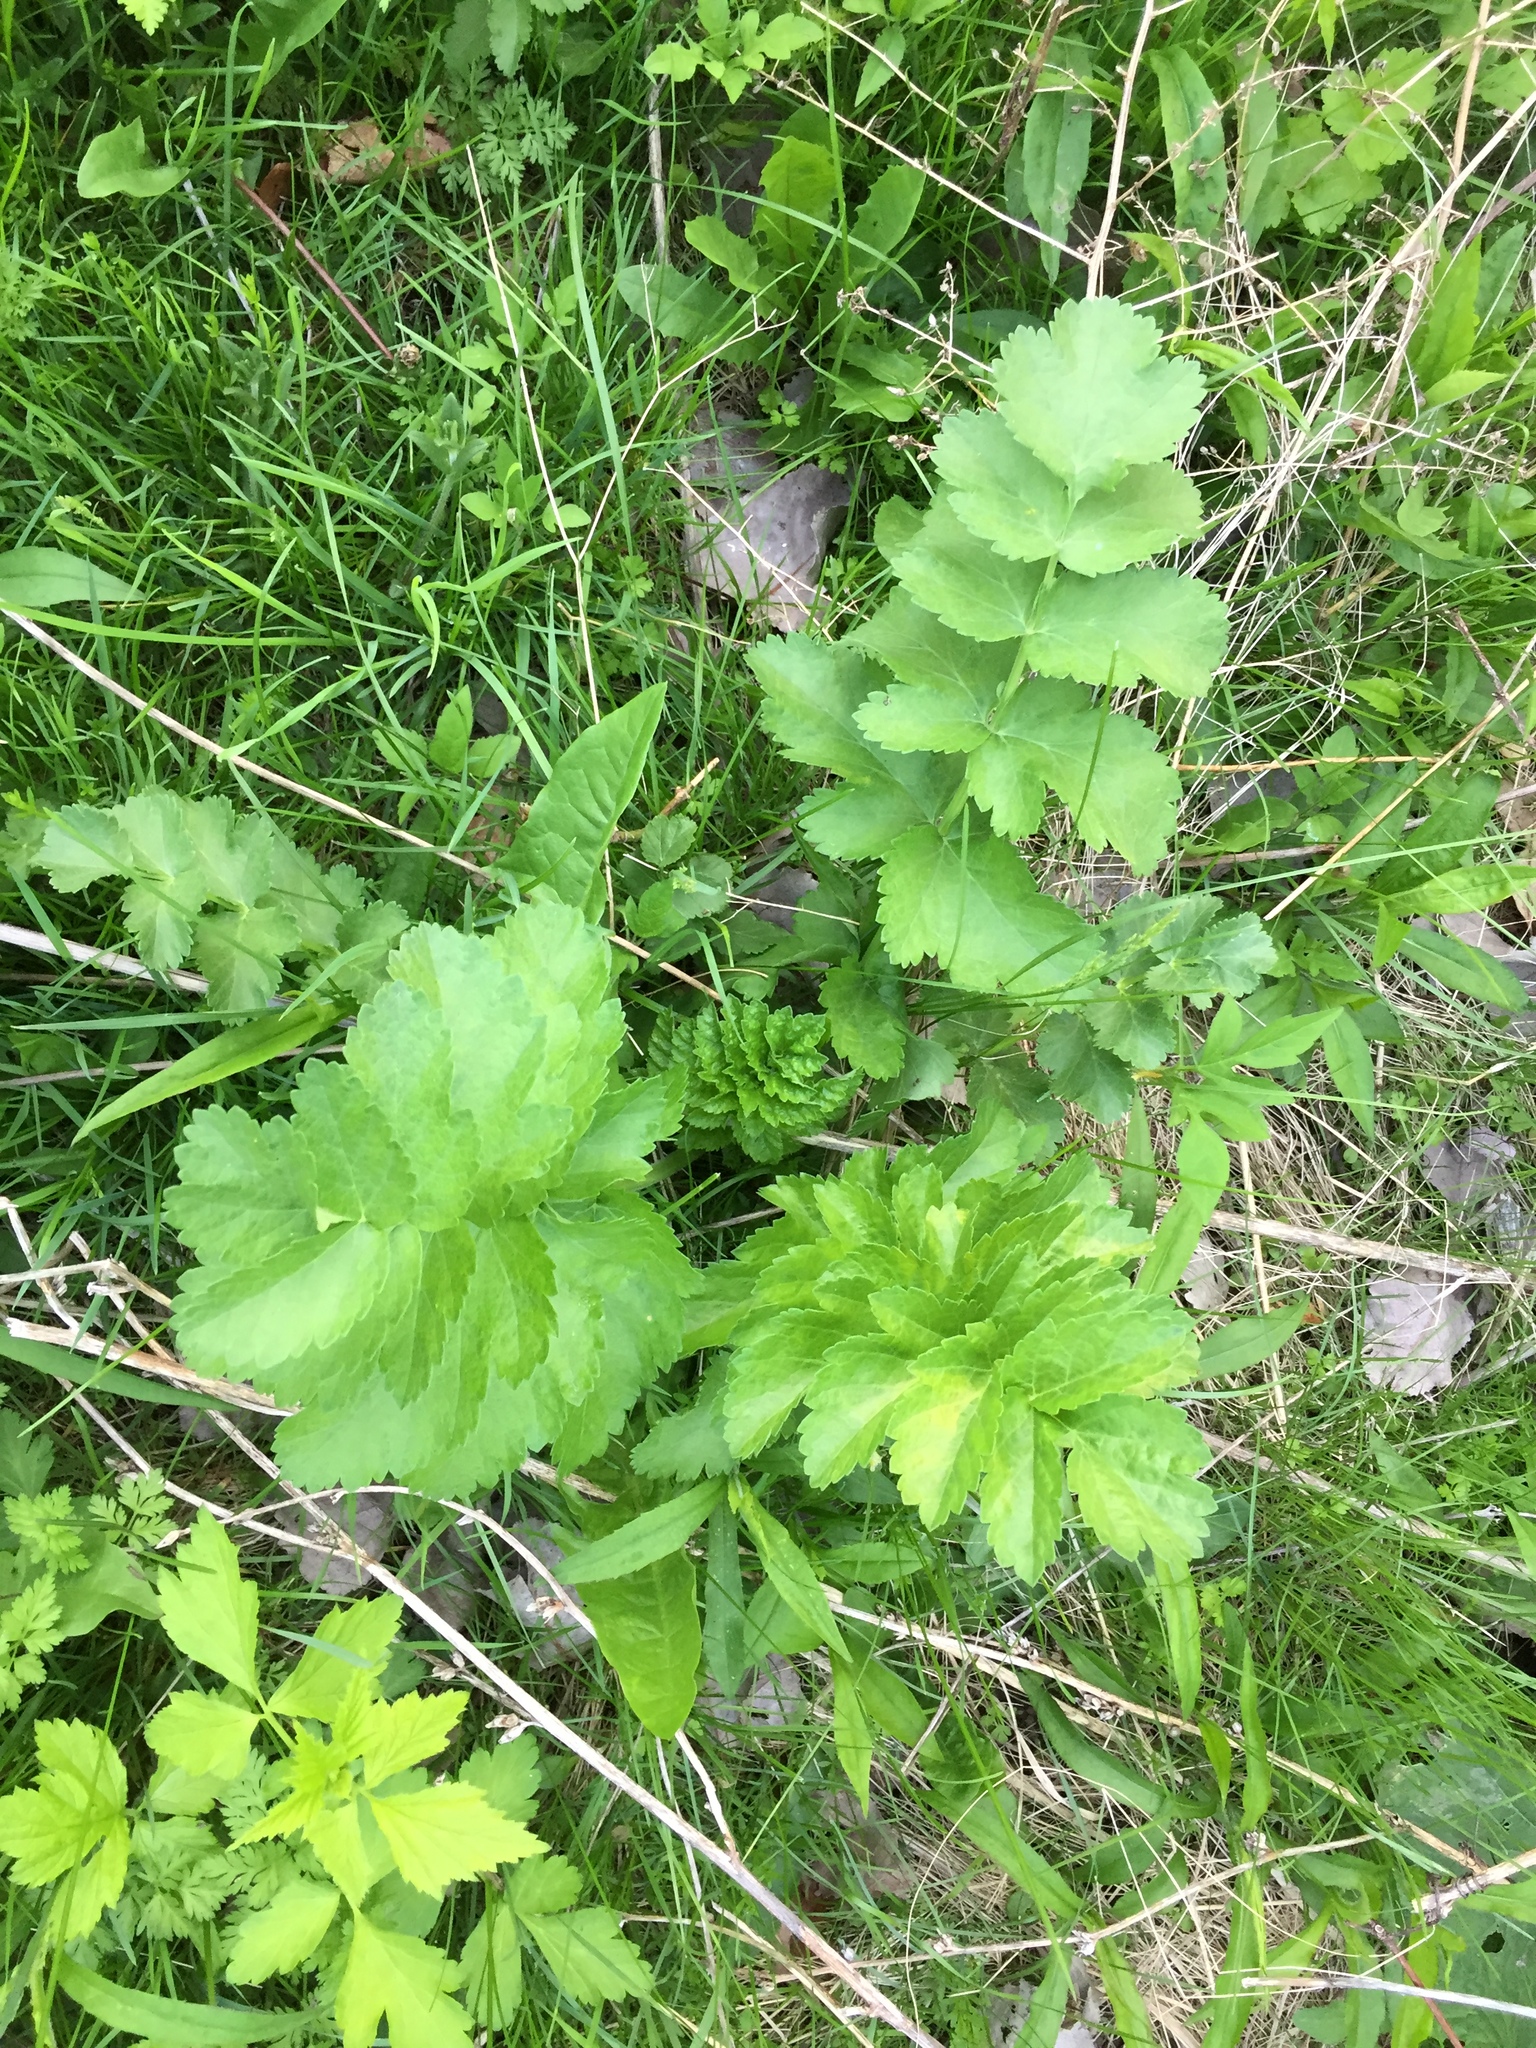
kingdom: Plantae
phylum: Tracheophyta
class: Magnoliopsida
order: Apiales
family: Apiaceae
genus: Pastinaca
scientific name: Pastinaca sativa
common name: Wild parsnip
